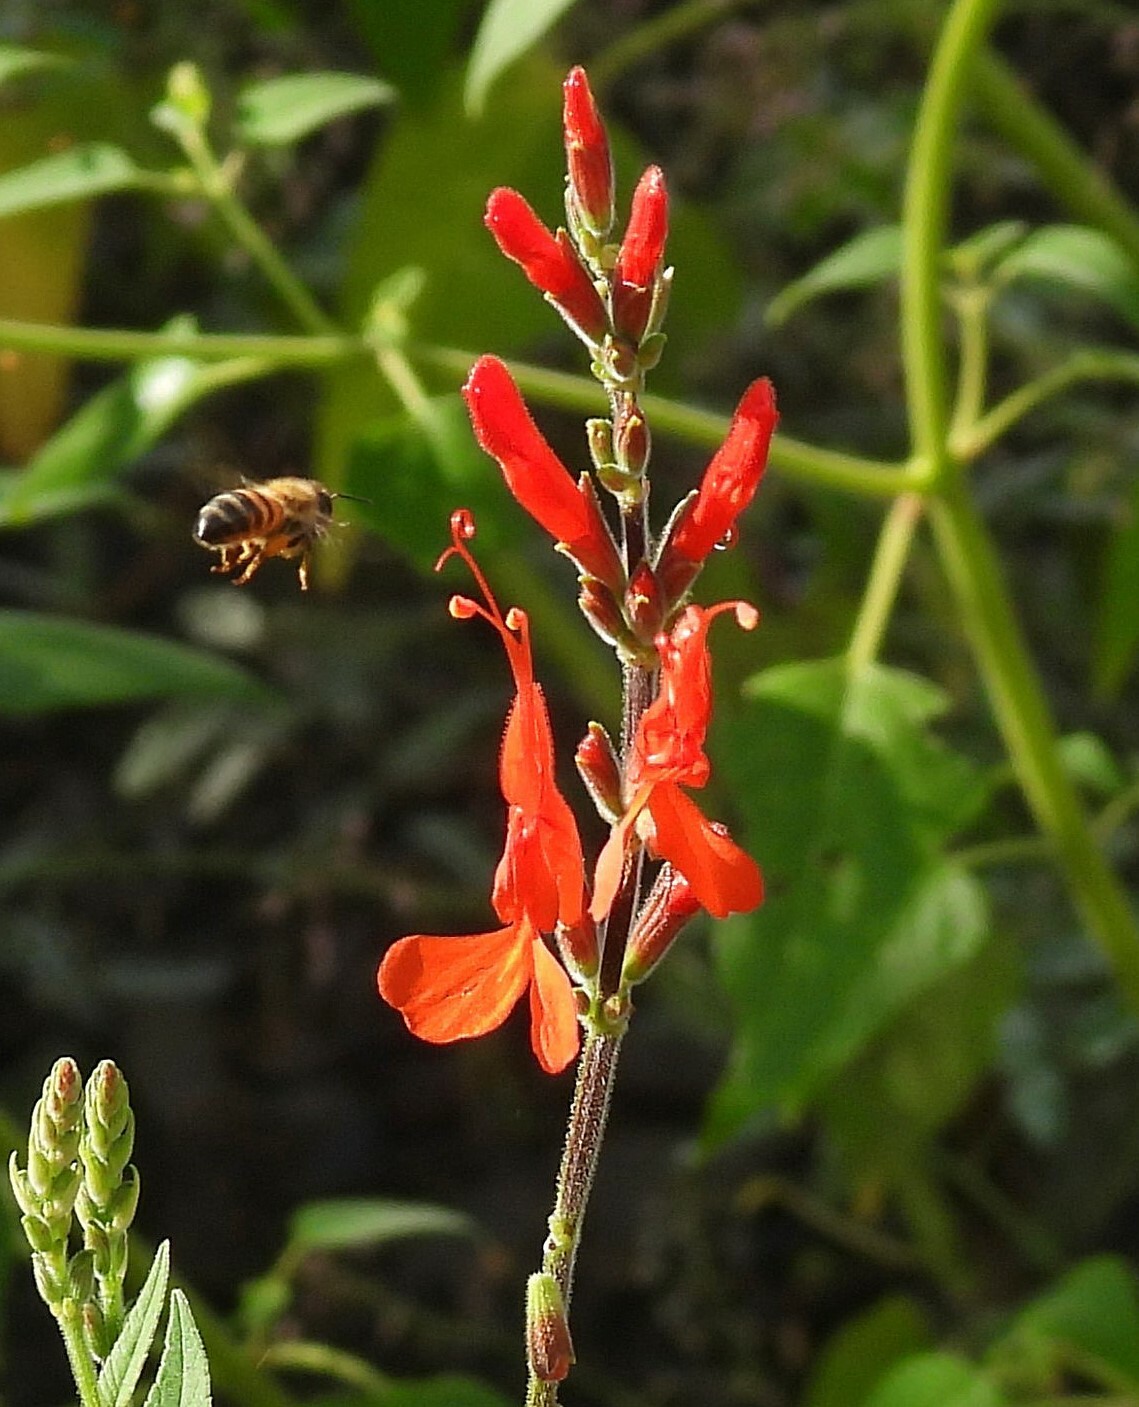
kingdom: Plantae
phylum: Tracheophyta
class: Magnoliopsida
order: Lamiales
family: Lamiaceae
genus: Salvia
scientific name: Salvia exserta
